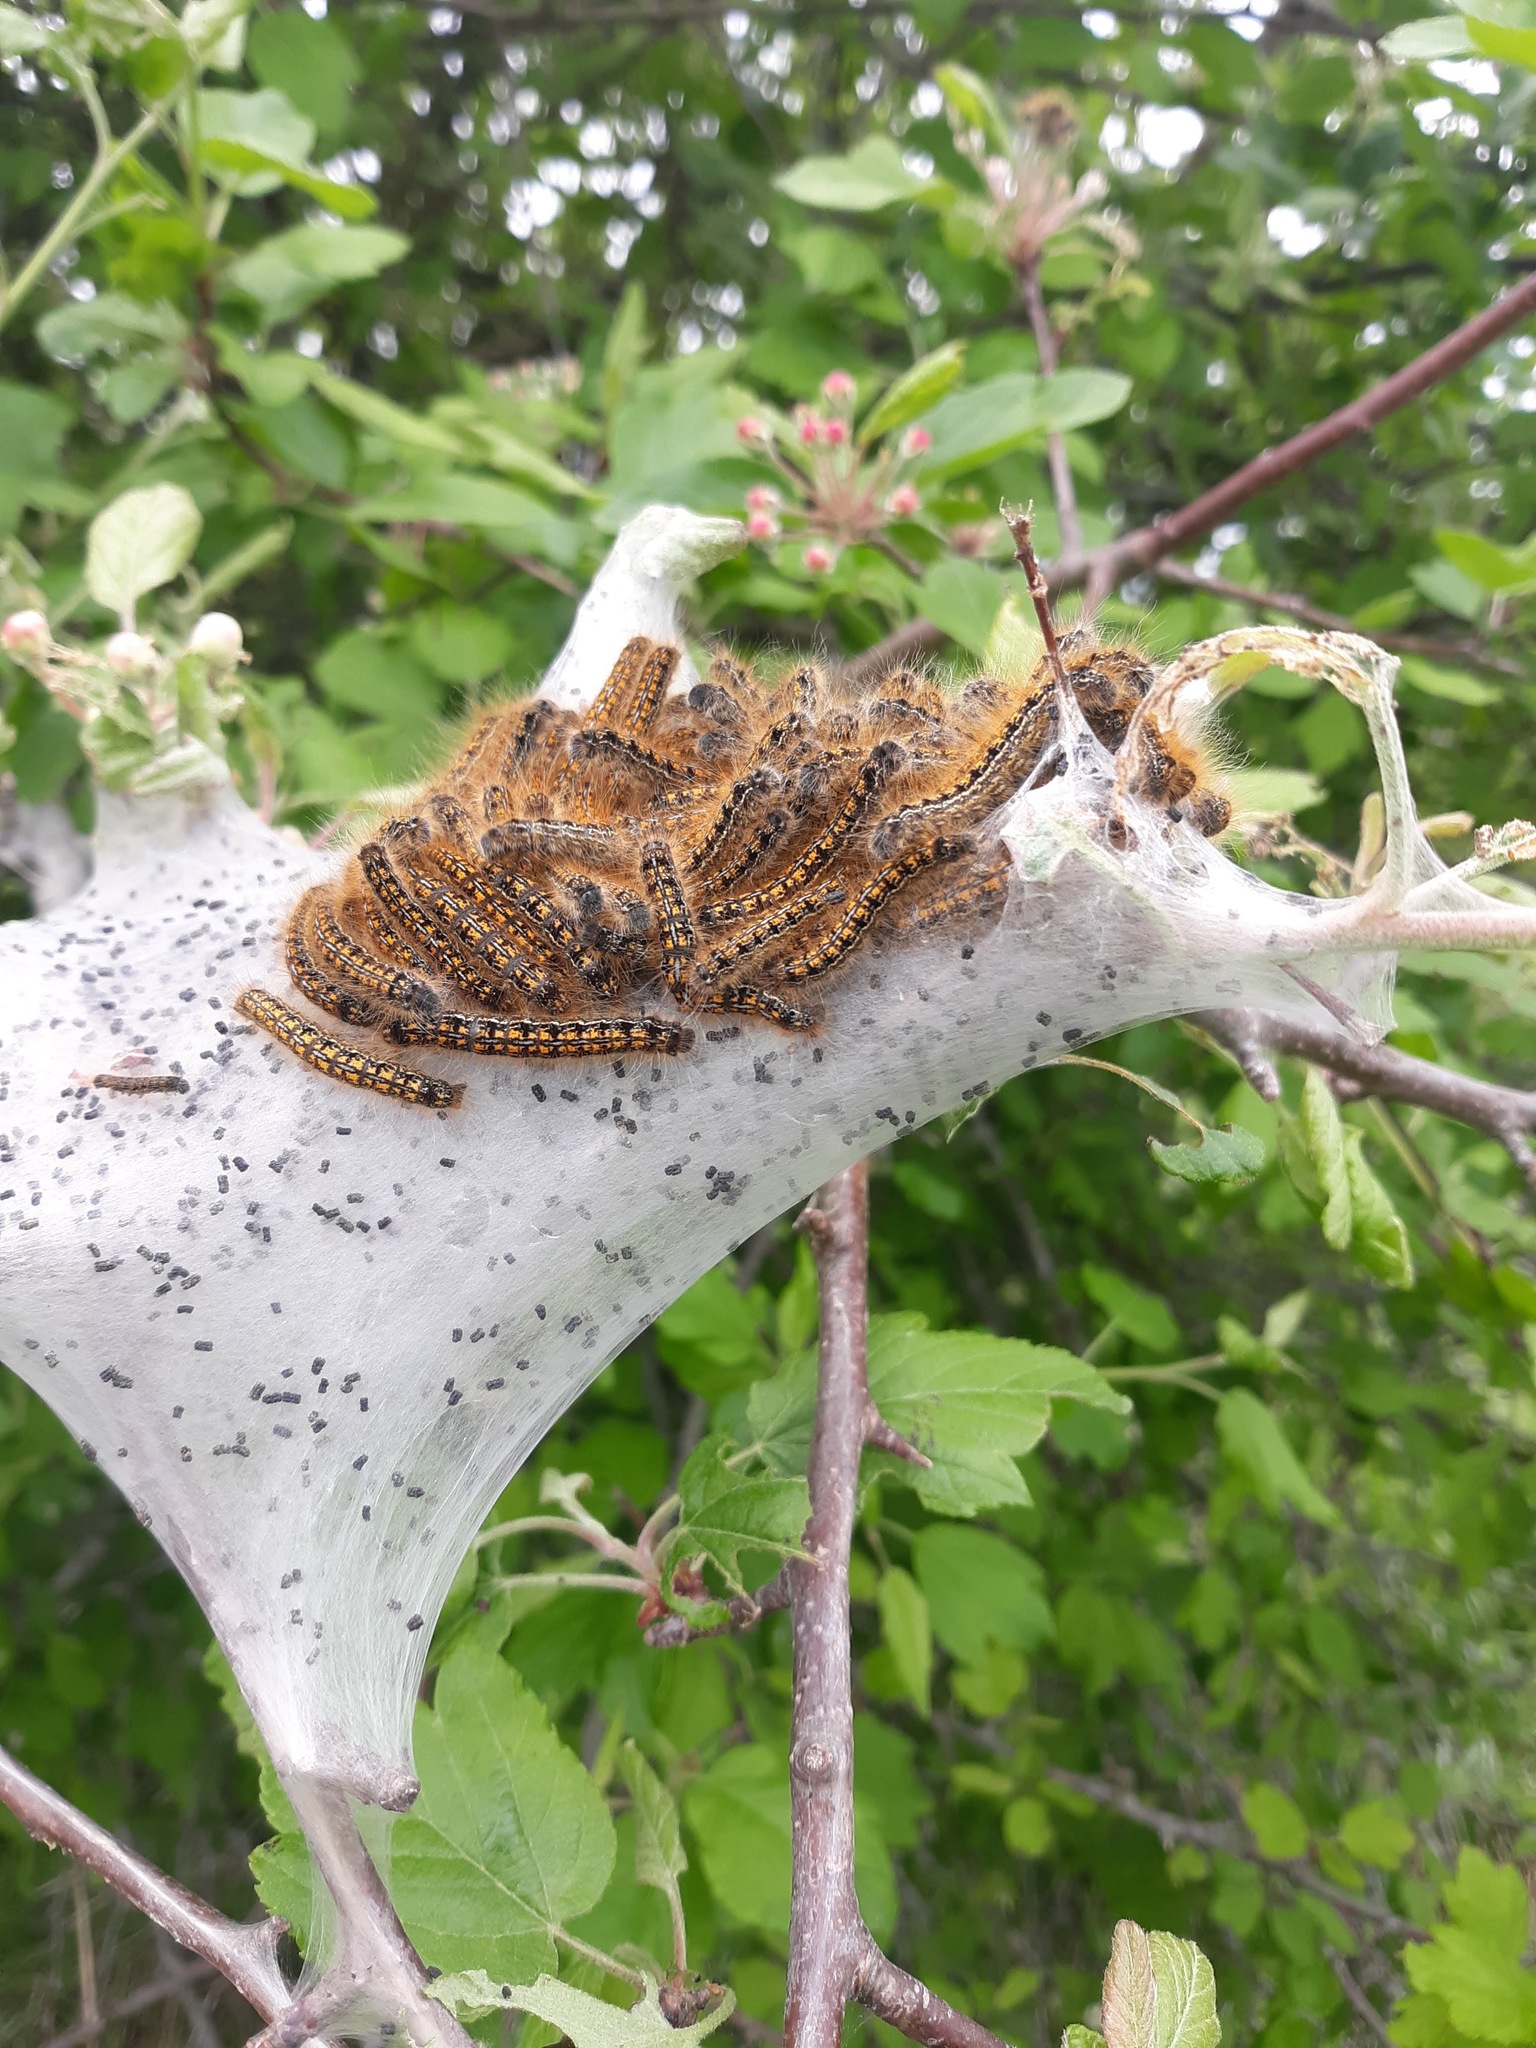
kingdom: Animalia
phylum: Arthropoda
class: Insecta
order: Lepidoptera
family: Lasiocampidae
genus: Malacosoma
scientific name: Malacosoma californica
